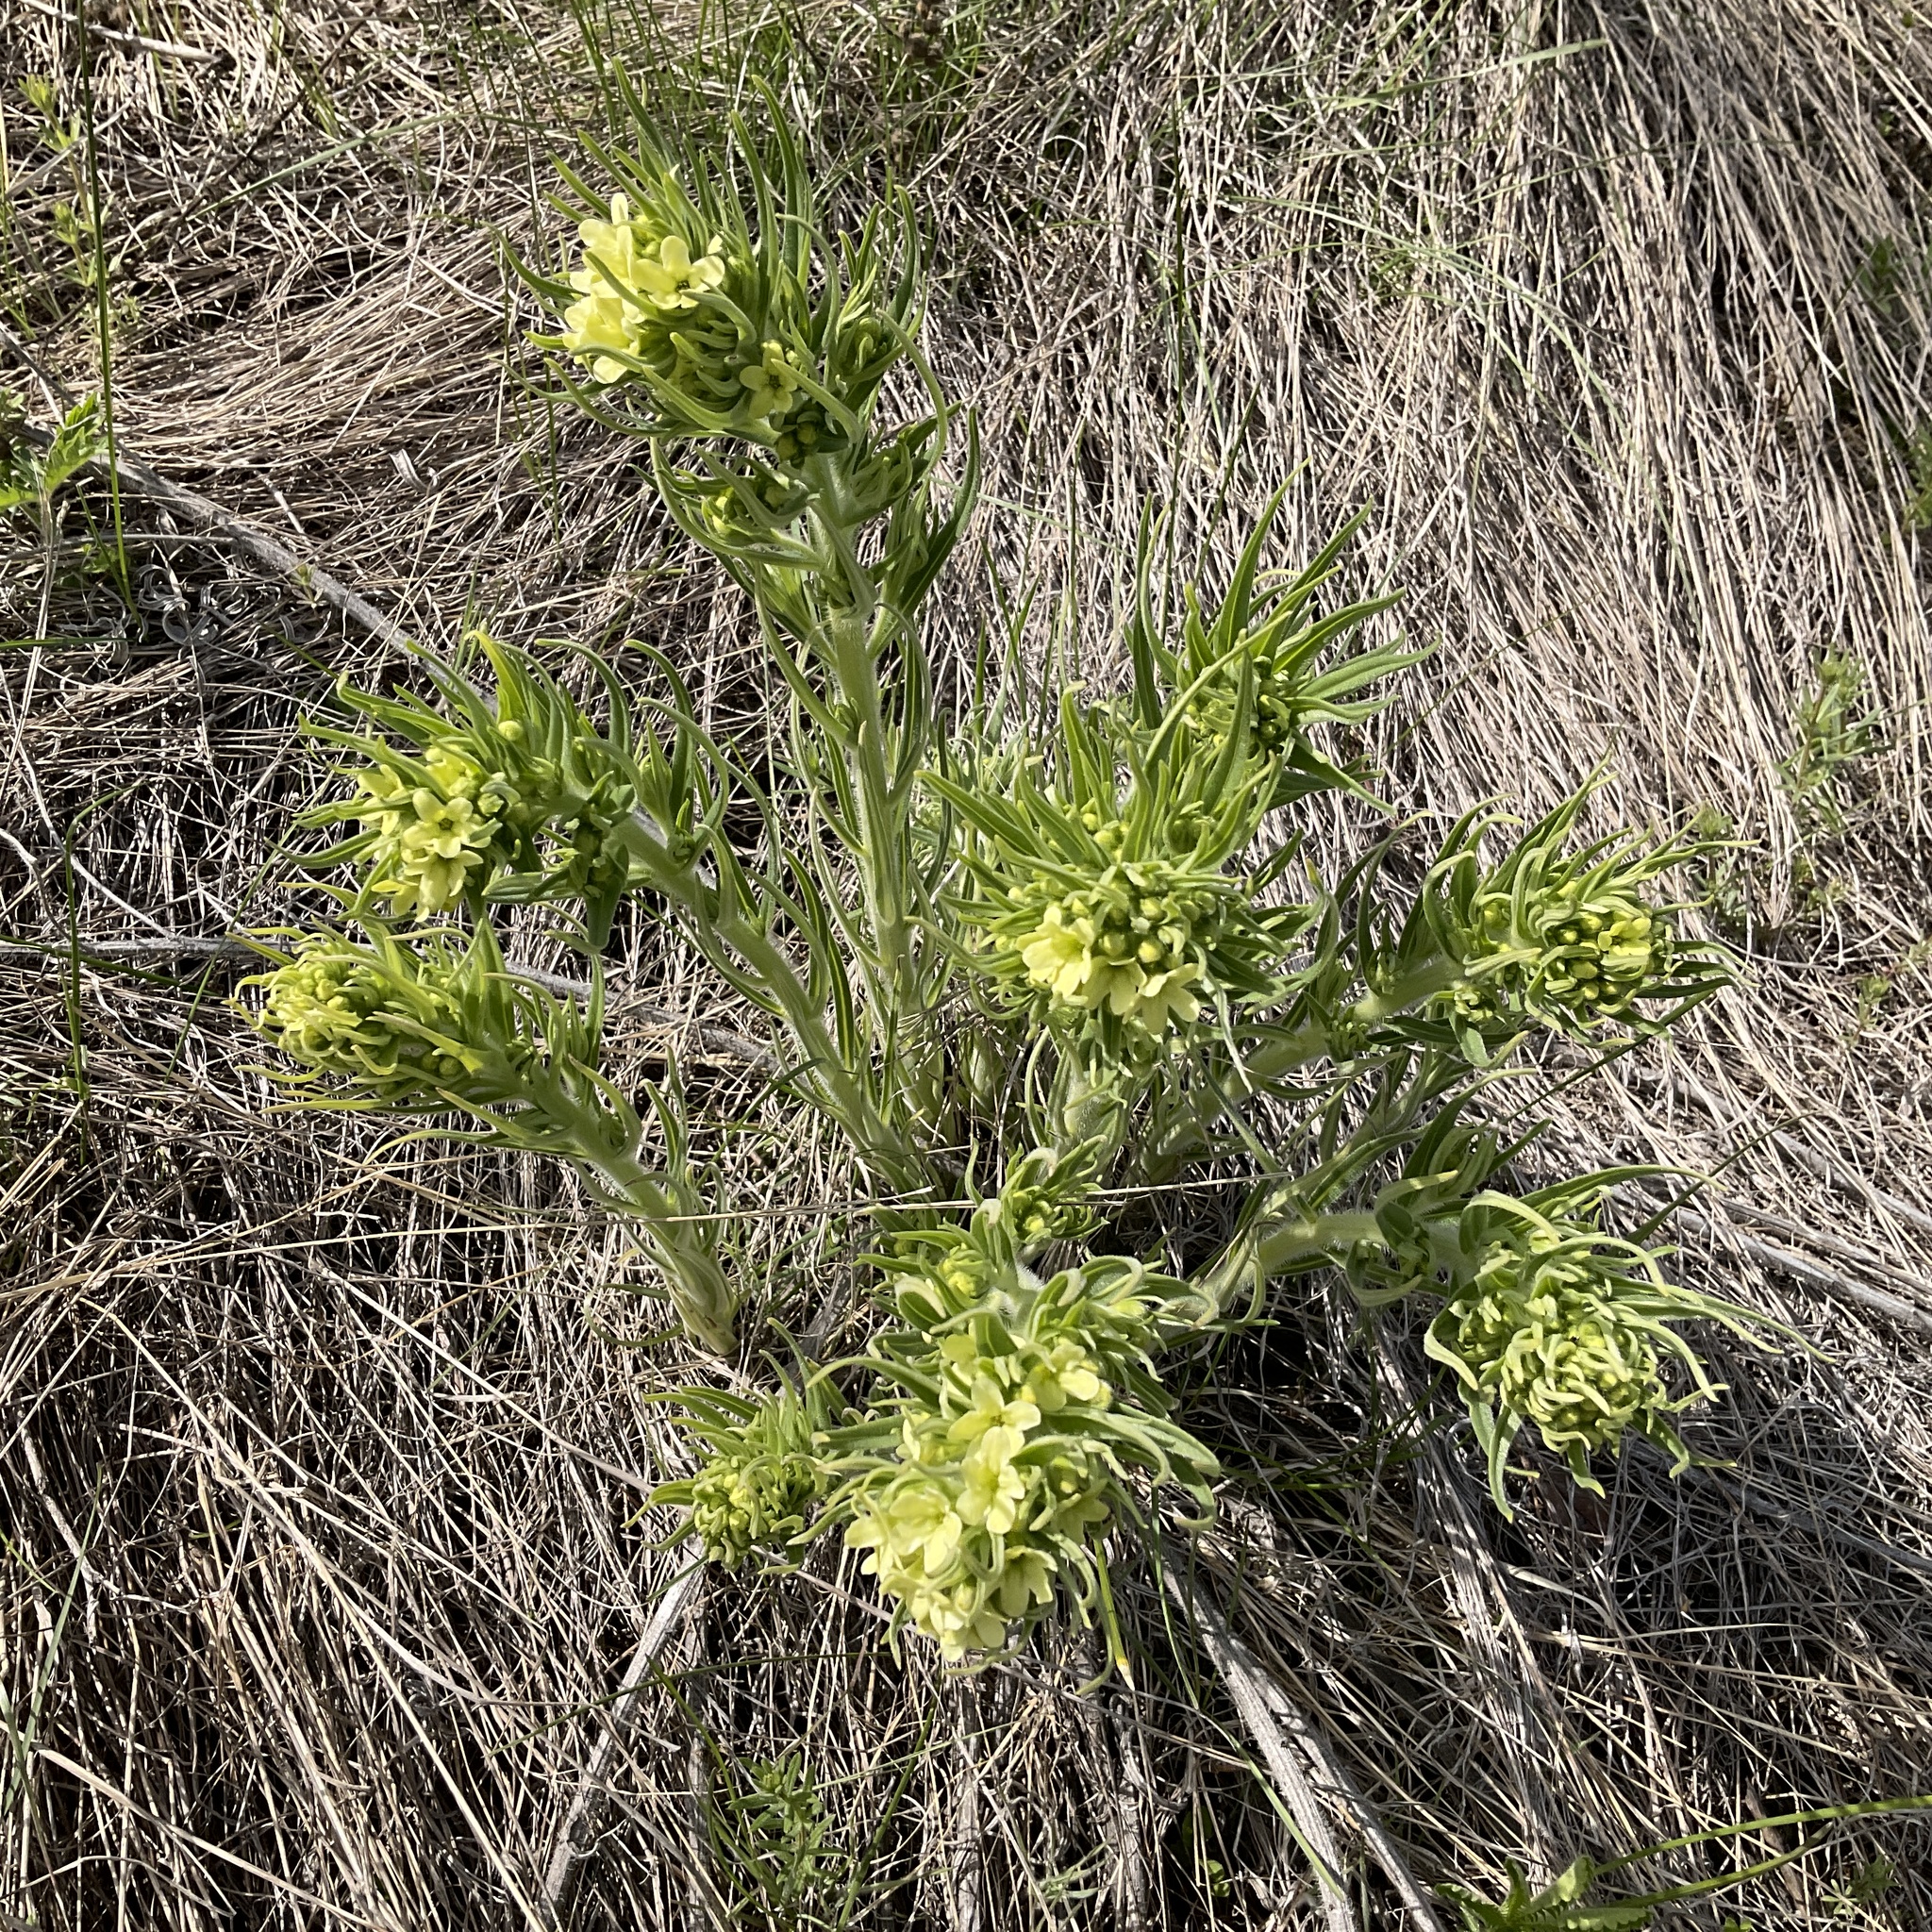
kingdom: Plantae
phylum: Tracheophyta
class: Magnoliopsida
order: Boraginales
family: Boraginaceae
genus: Lithospermum
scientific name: Lithospermum ruderale
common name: Western gromwell
